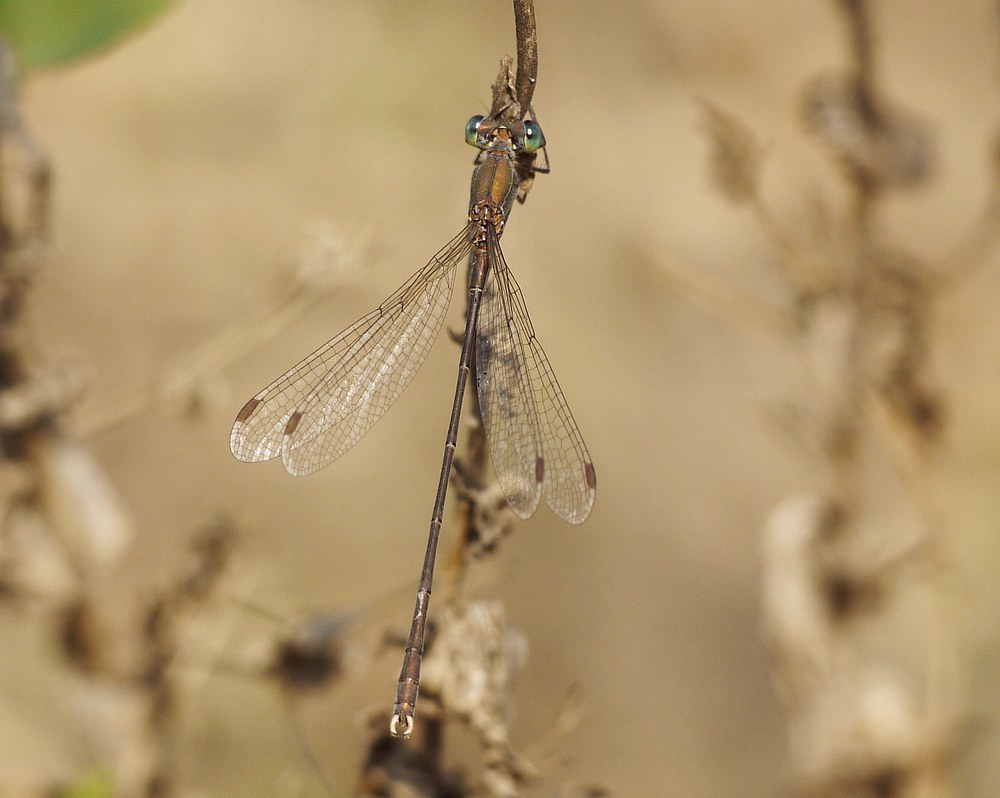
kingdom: Animalia
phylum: Arthropoda
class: Insecta
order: Odonata
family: Lestidae
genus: Chalcolestes
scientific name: Chalcolestes parvidens
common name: Eastern willow spreadwing
